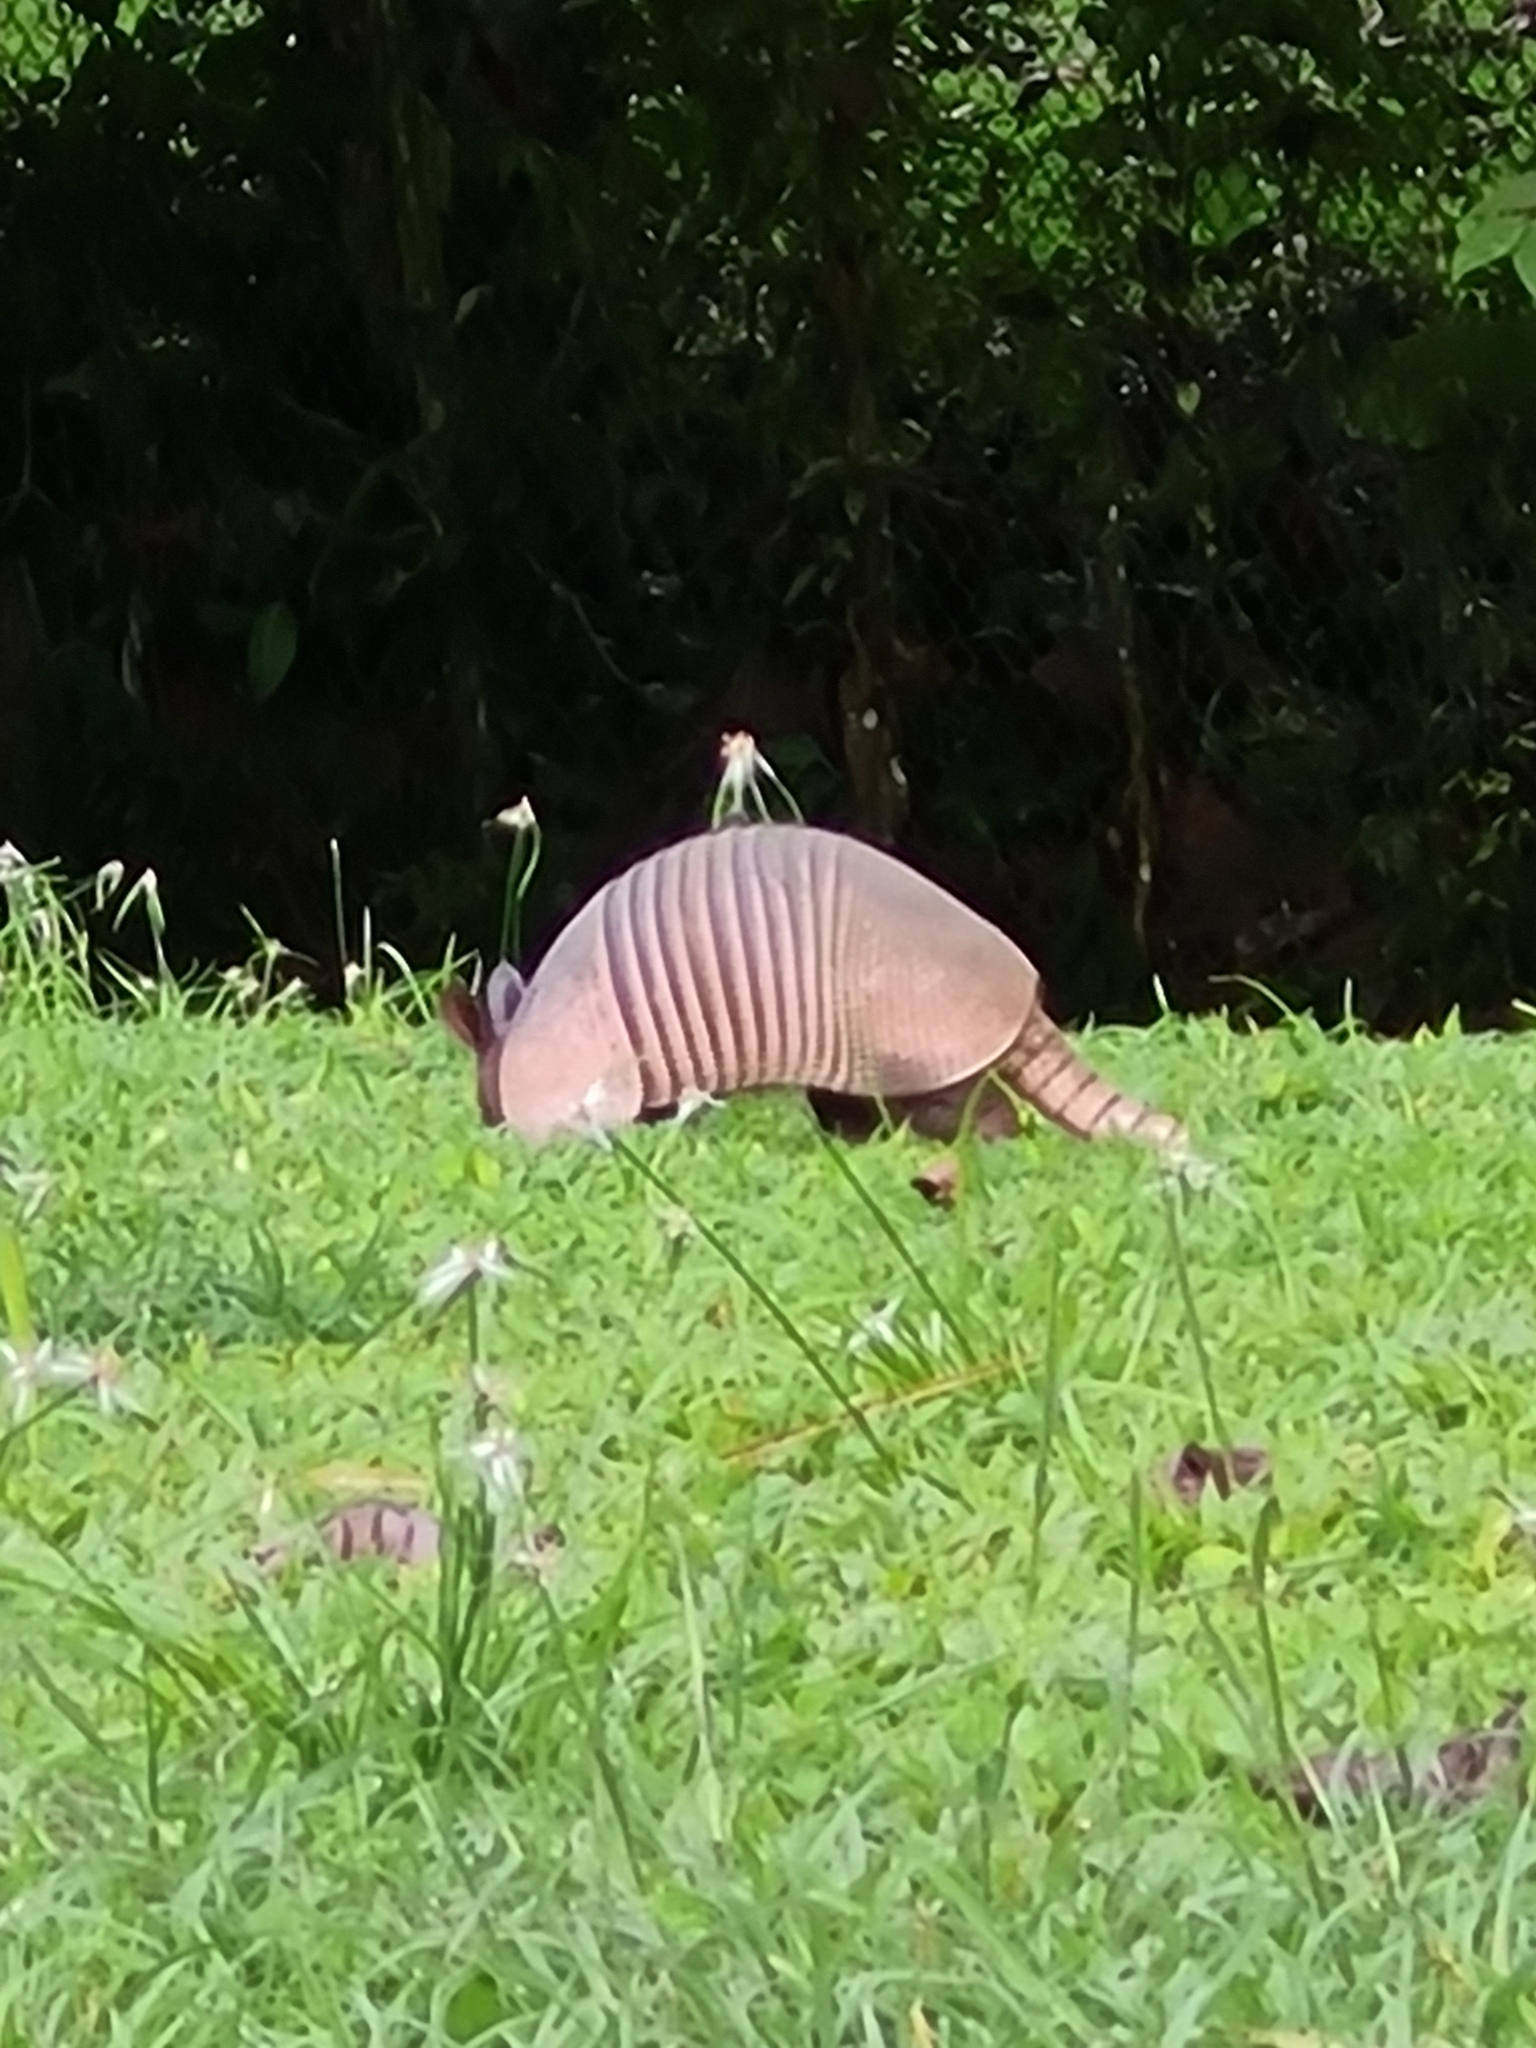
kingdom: Animalia
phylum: Chordata
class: Mammalia
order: Cingulata
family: Dasypodidae
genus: Dasypus
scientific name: Dasypus novemcinctus
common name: Nine-banded armadillo
